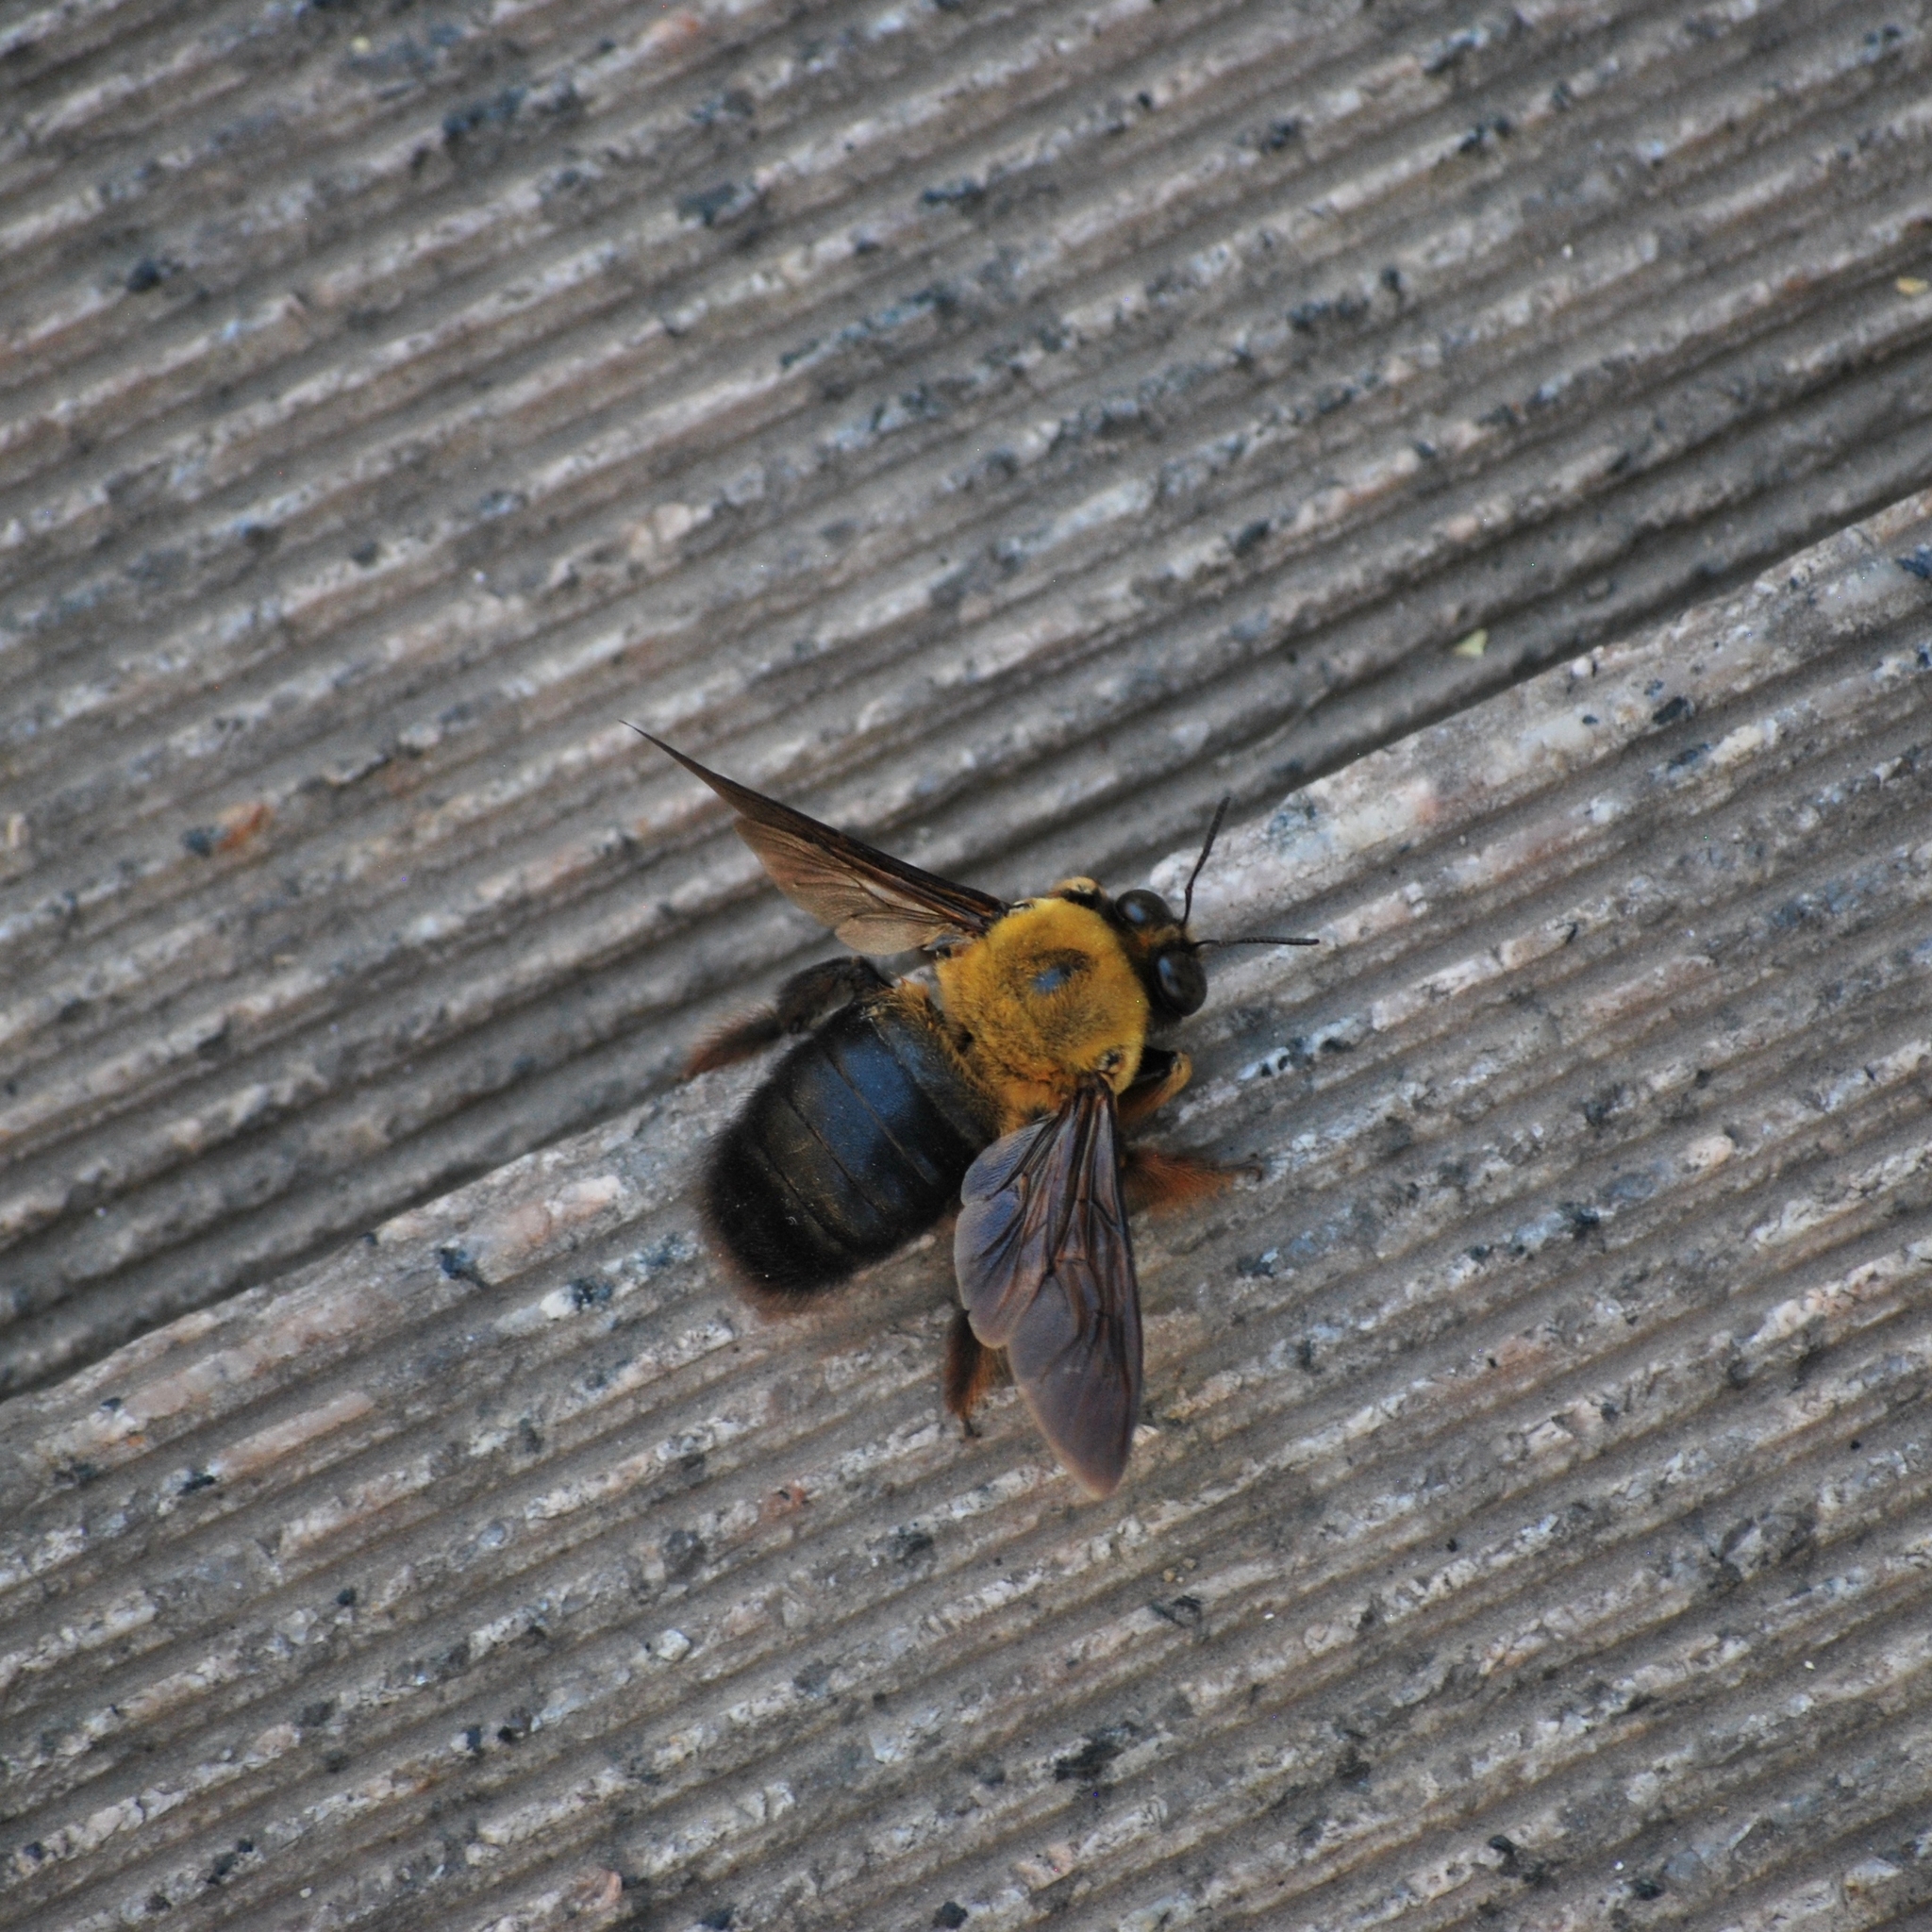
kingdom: Animalia
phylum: Arthropoda
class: Insecta
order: Hymenoptera
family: Apidae
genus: Xylocopa
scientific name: Xylocopa appendiculata
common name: Japanese carpenter bee
